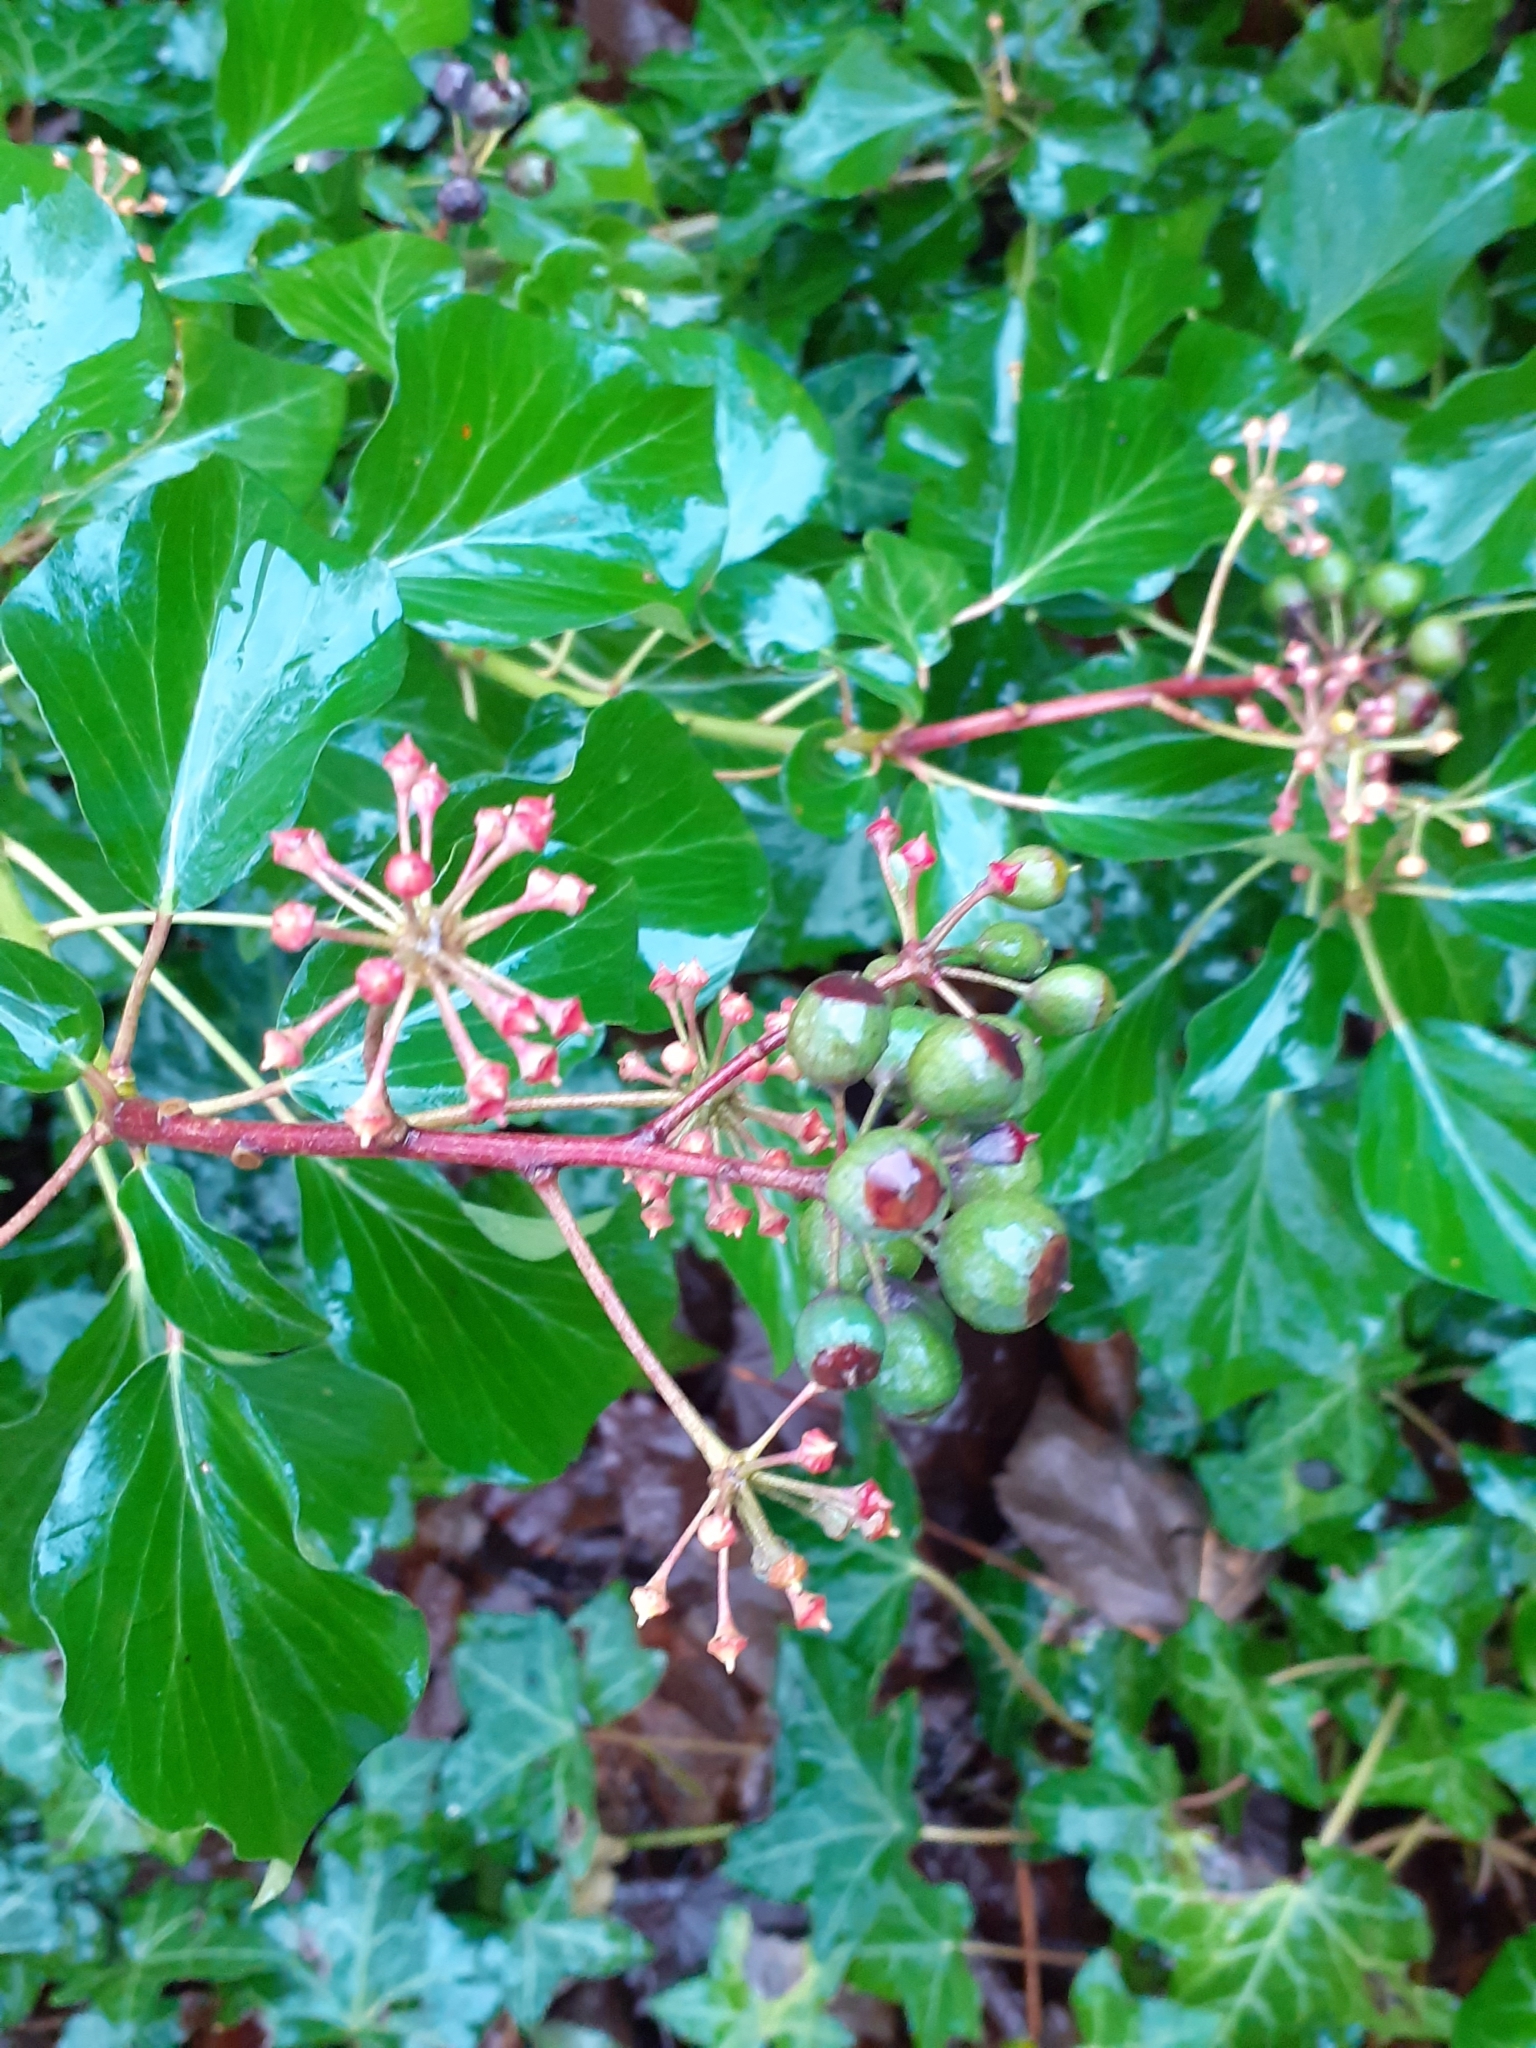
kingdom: Plantae
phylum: Tracheophyta
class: Magnoliopsida
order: Apiales
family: Araliaceae
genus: Hedera
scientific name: Hedera helix
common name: Ivy
